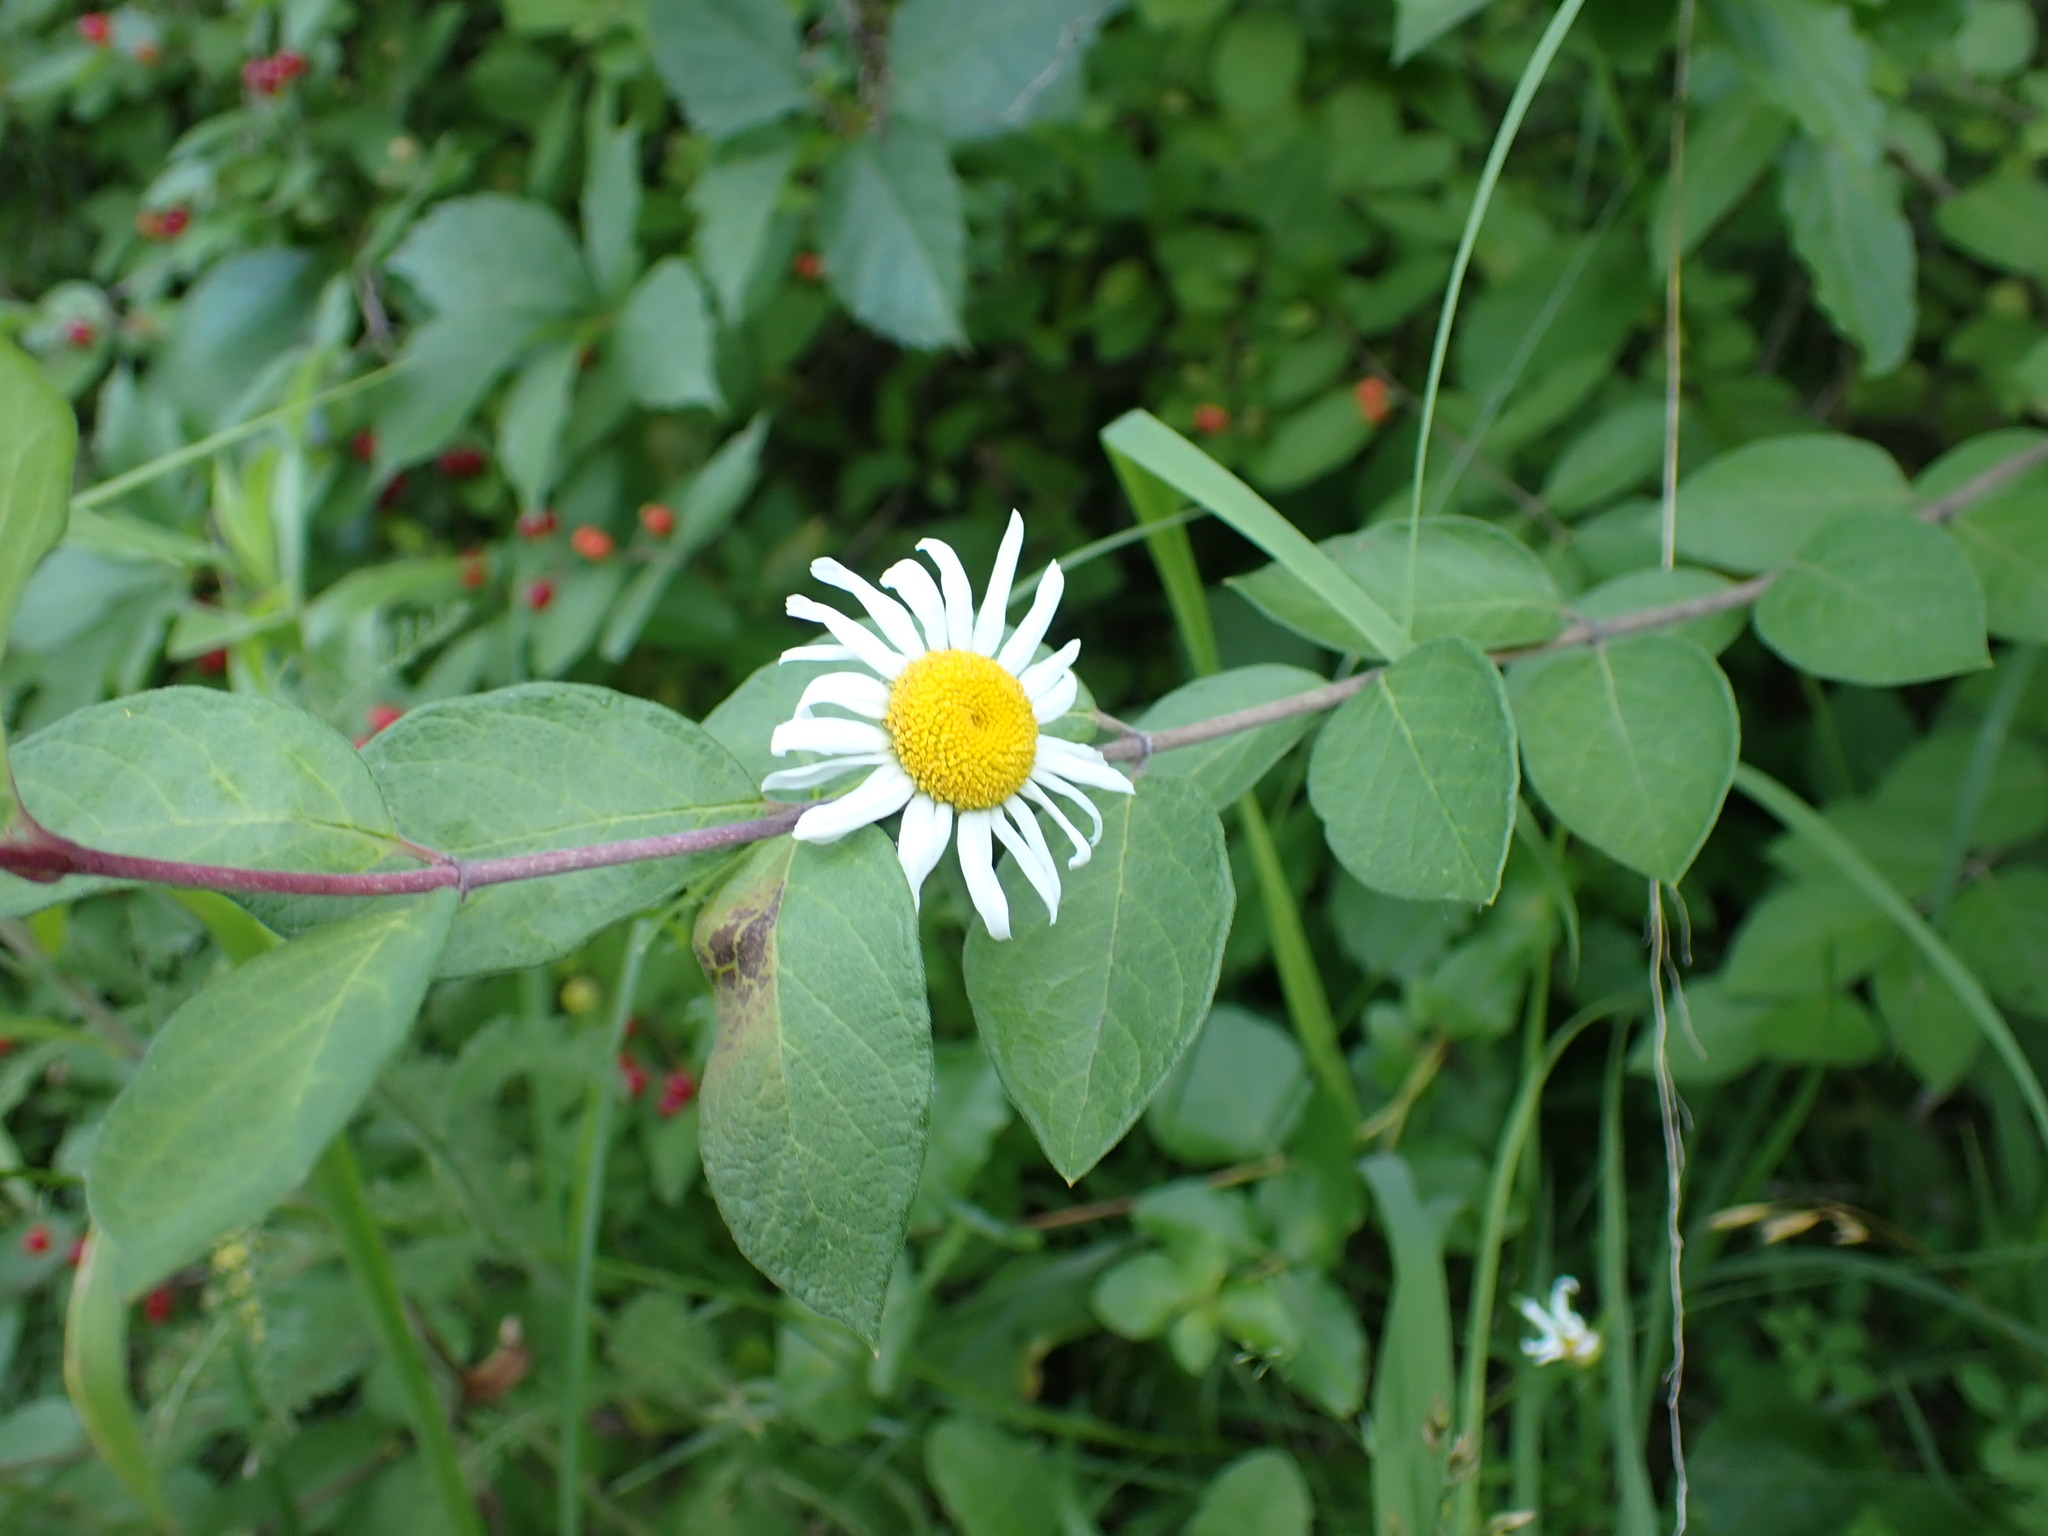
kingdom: Plantae
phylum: Tracheophyta
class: Magnoliopsida
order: Asterales
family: Asteraceae
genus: Leucanthemum
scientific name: Leucanthemum vulgare
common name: Oxeye daisy
